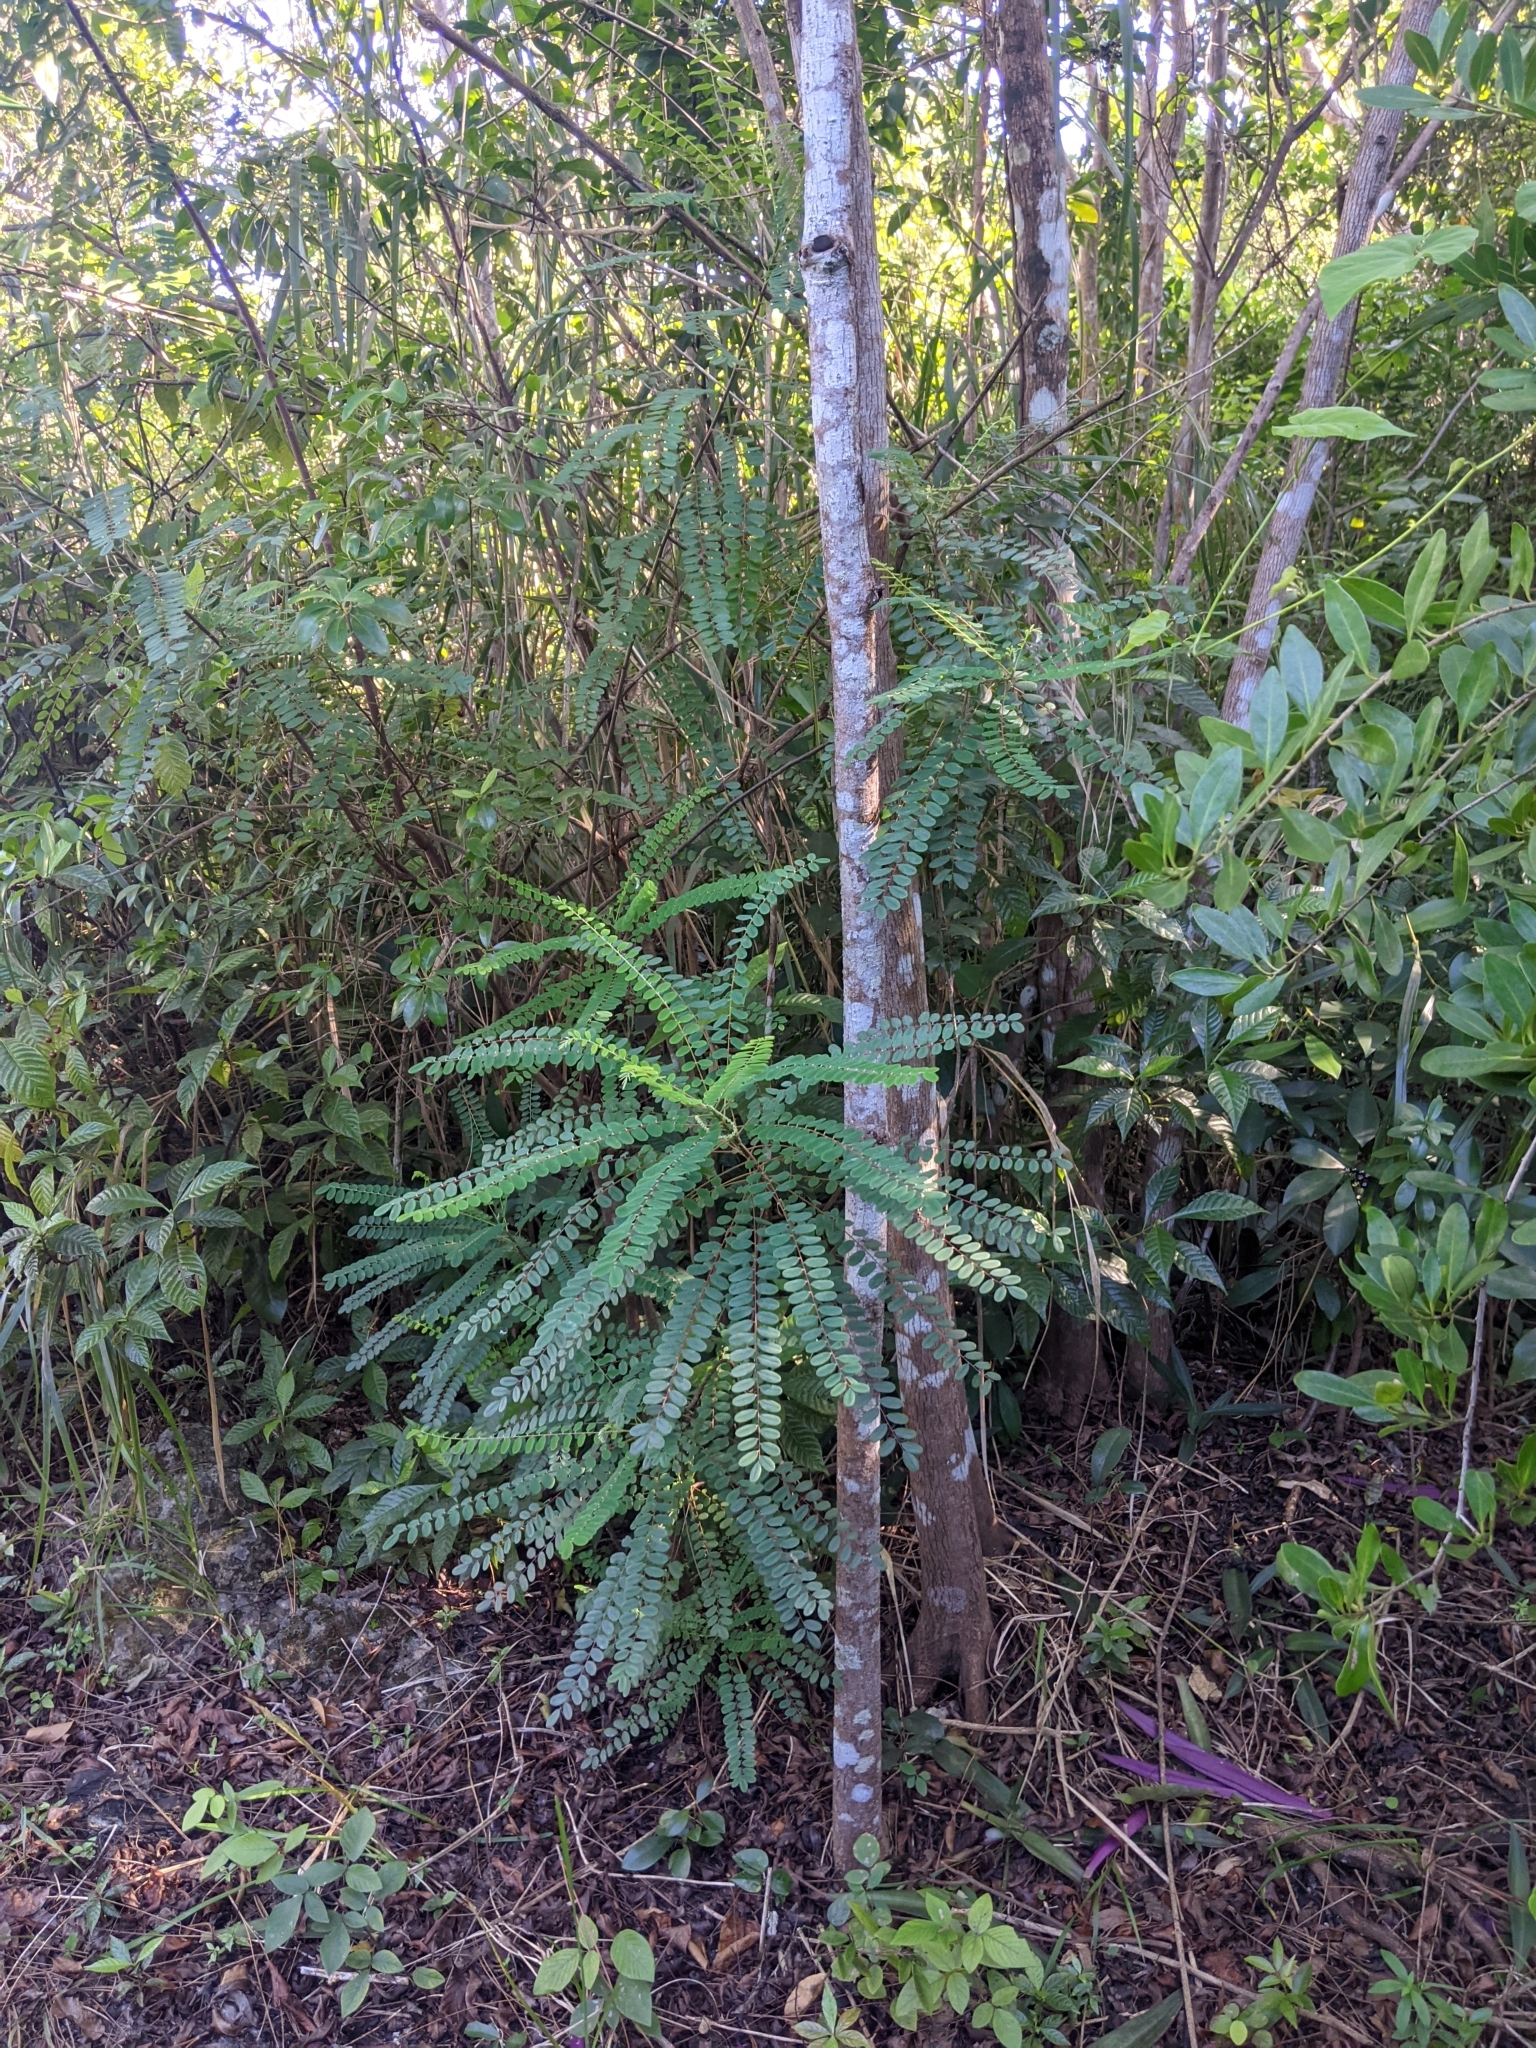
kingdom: Plantae
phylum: Tracheophyta
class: Magnoliopsida
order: Picramniales
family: Picramniaceae
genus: Alvaradoa
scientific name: Alvaradoa amorphoides
